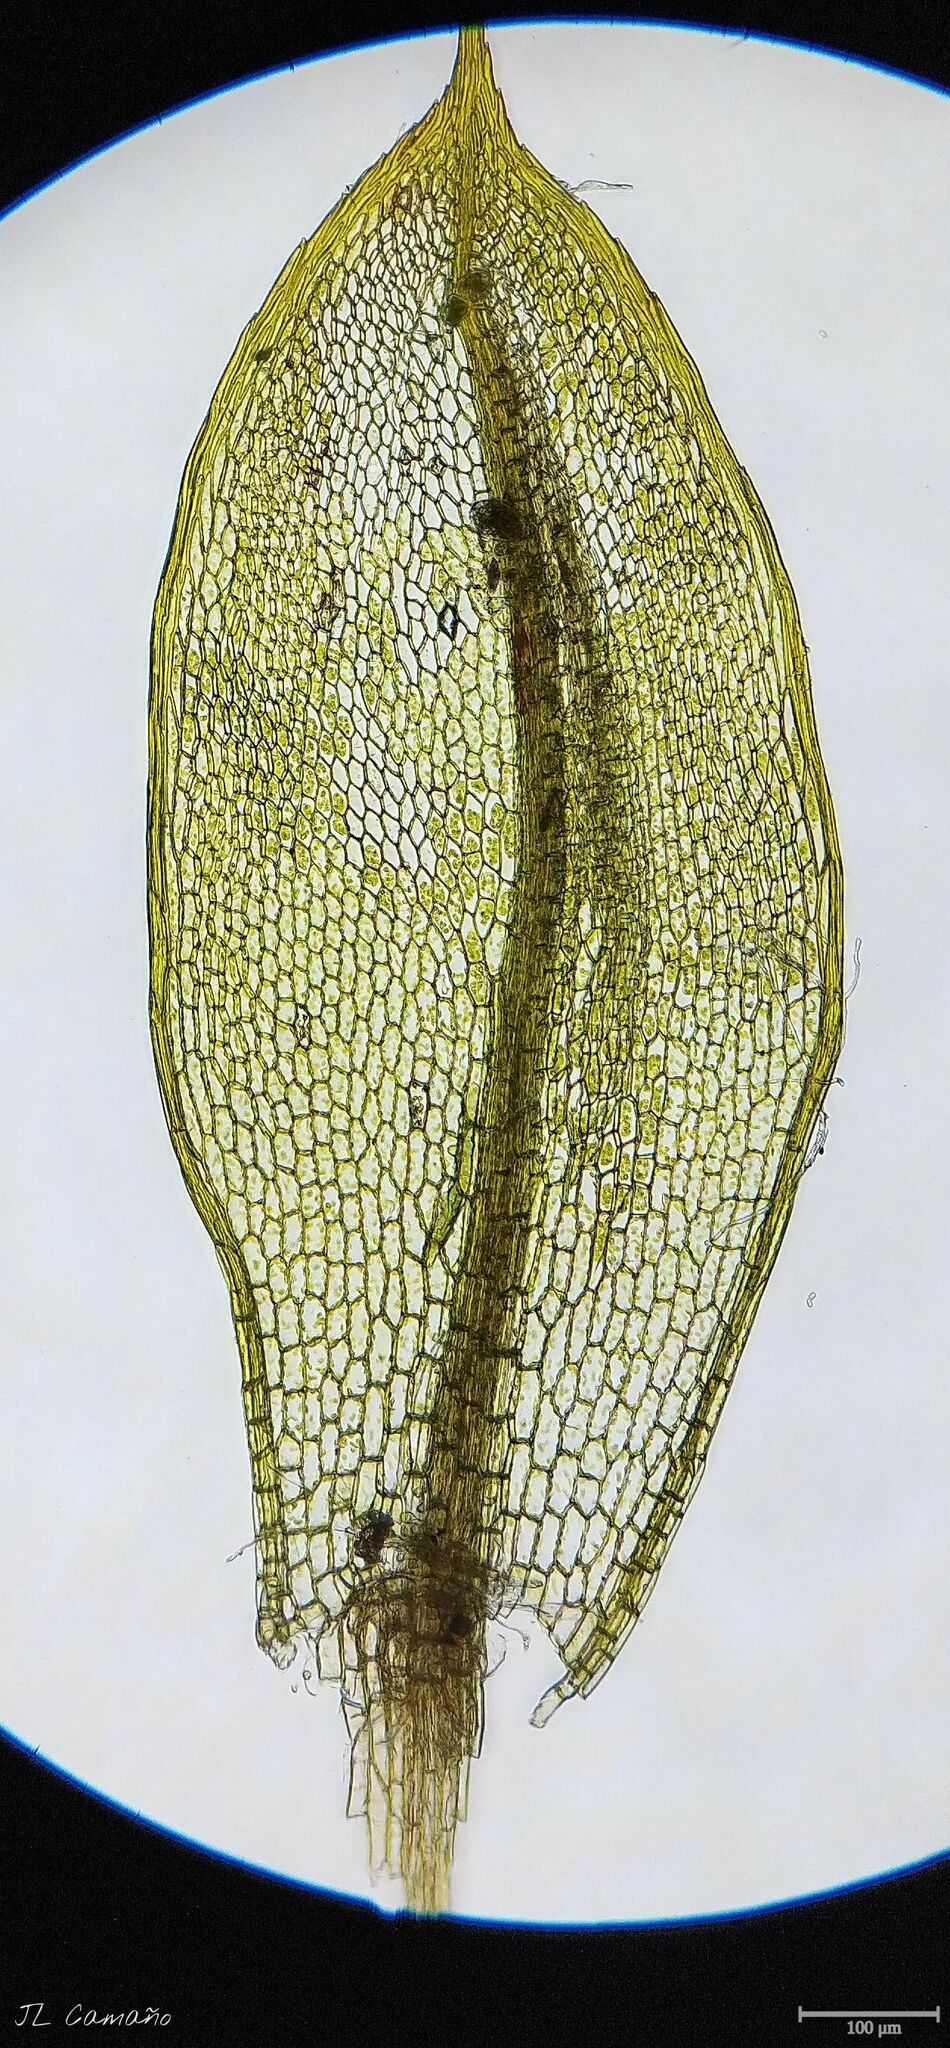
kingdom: Plantae
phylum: Bryophyta
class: Bryopsida
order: Bryales
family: Bryaceae
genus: Rosulabryum
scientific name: Rosulabryum capillare
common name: Capillary thread-moss
